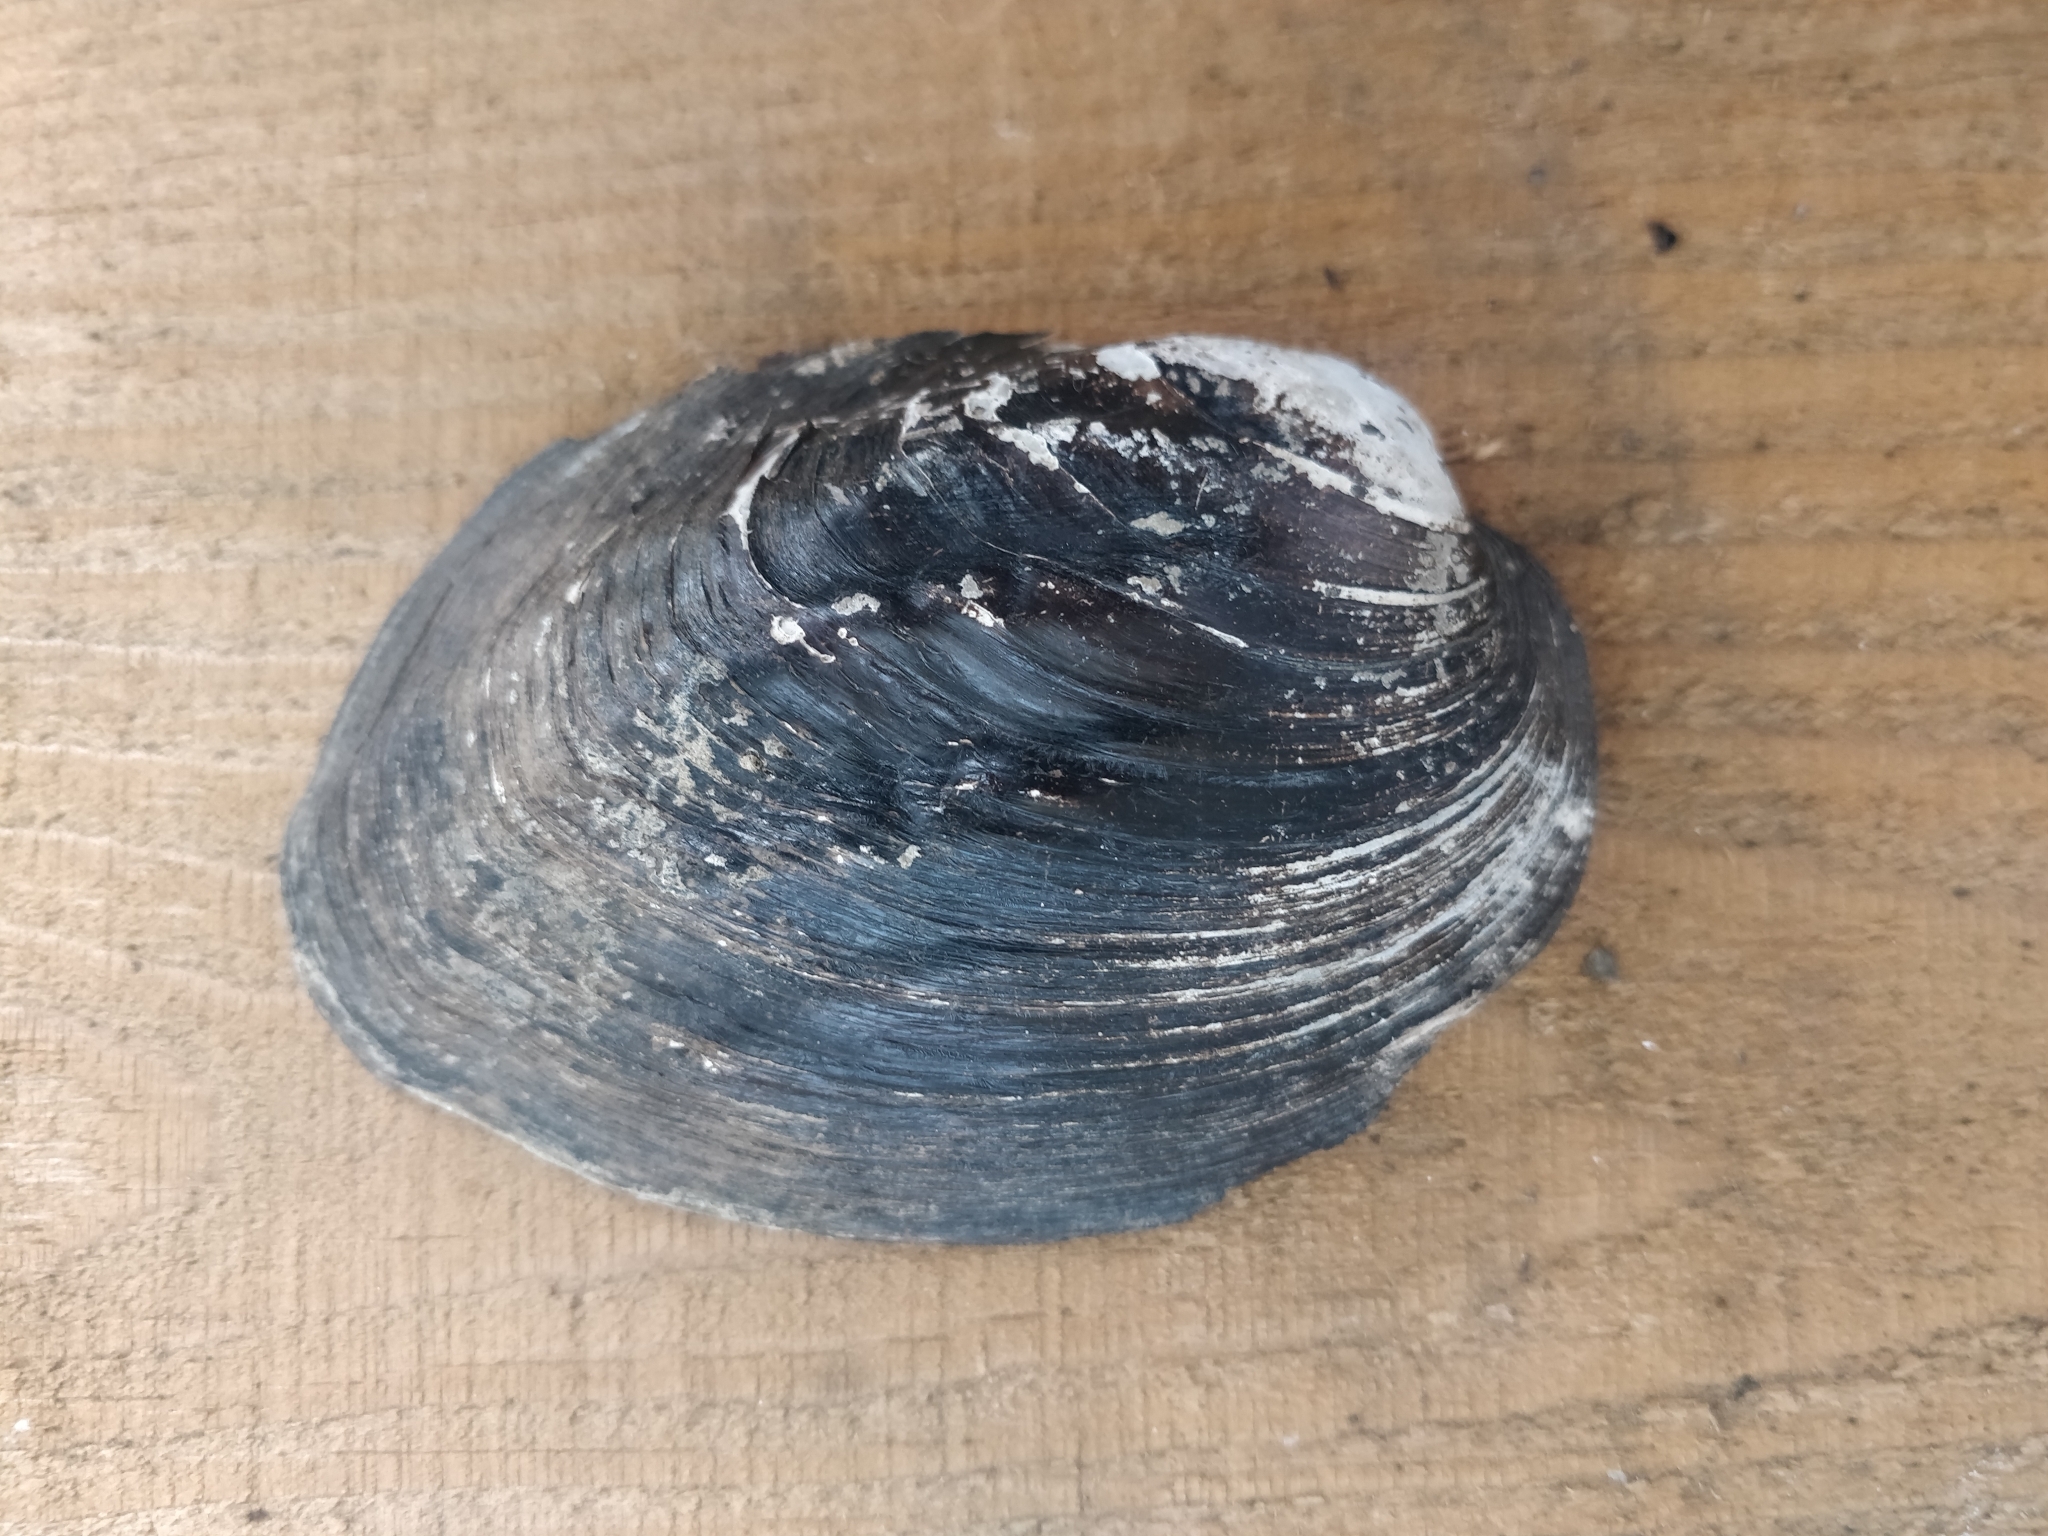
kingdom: Animalia
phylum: Mollusca
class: Bivalvia
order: Unionida
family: Unionidae
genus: Amblema
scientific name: Amblema plicata
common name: Threeridge
